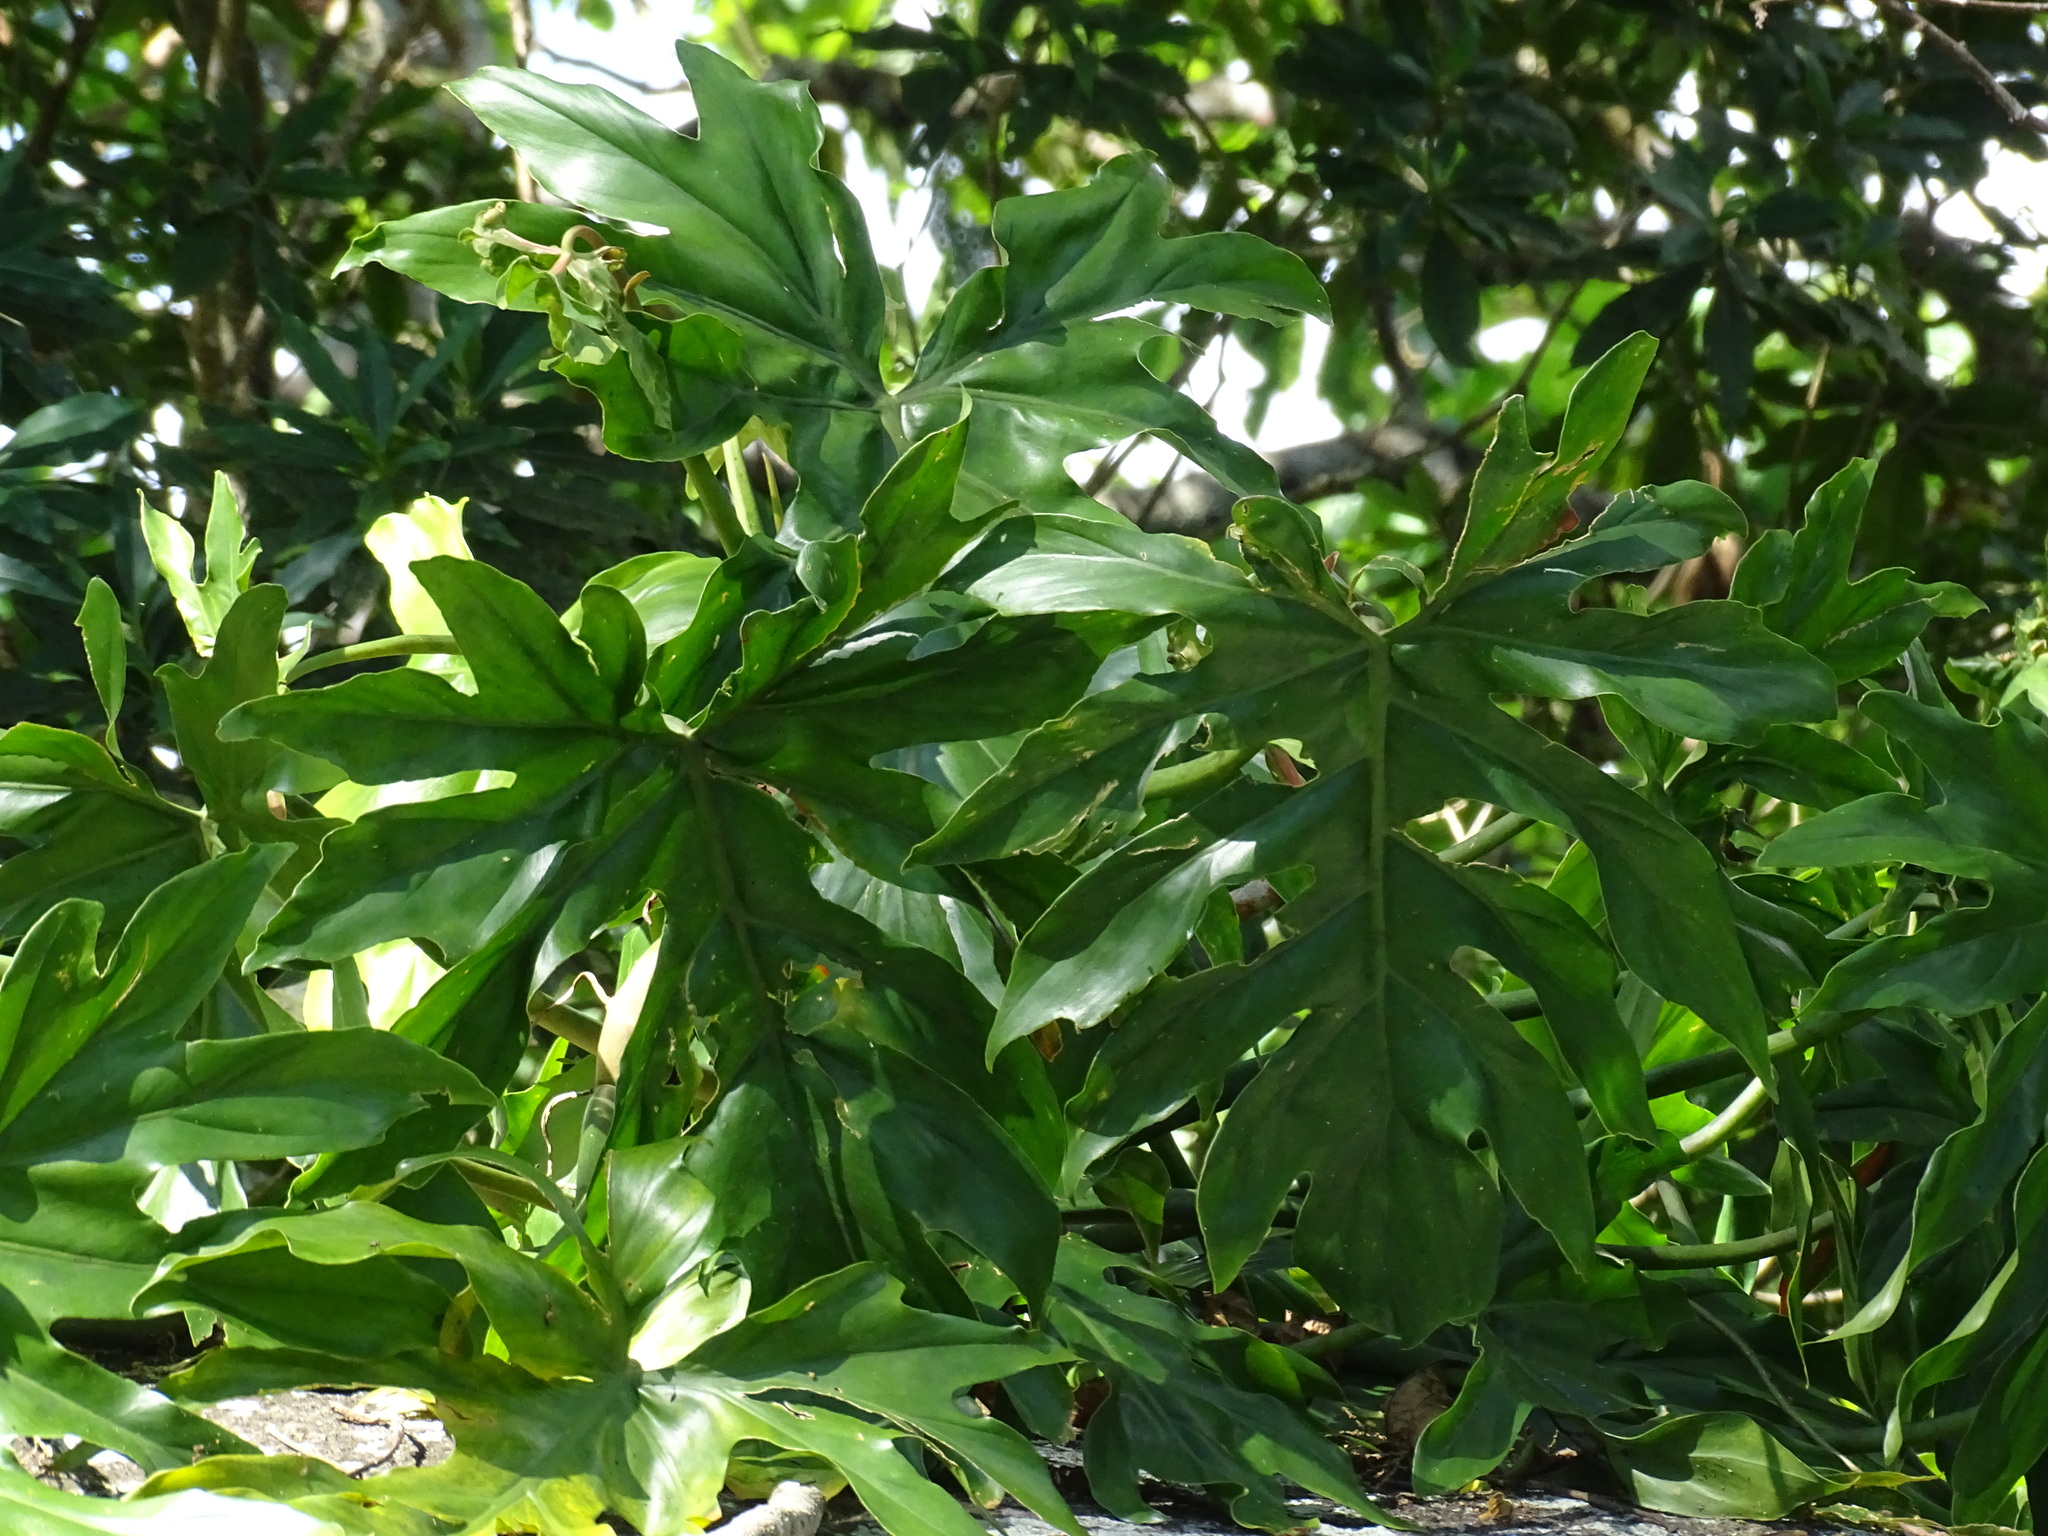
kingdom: Plantae
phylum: Tracheophyta
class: Liliopsida
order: Alismatales
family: Araceae
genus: Philodendron
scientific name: Philodendron radiatum
